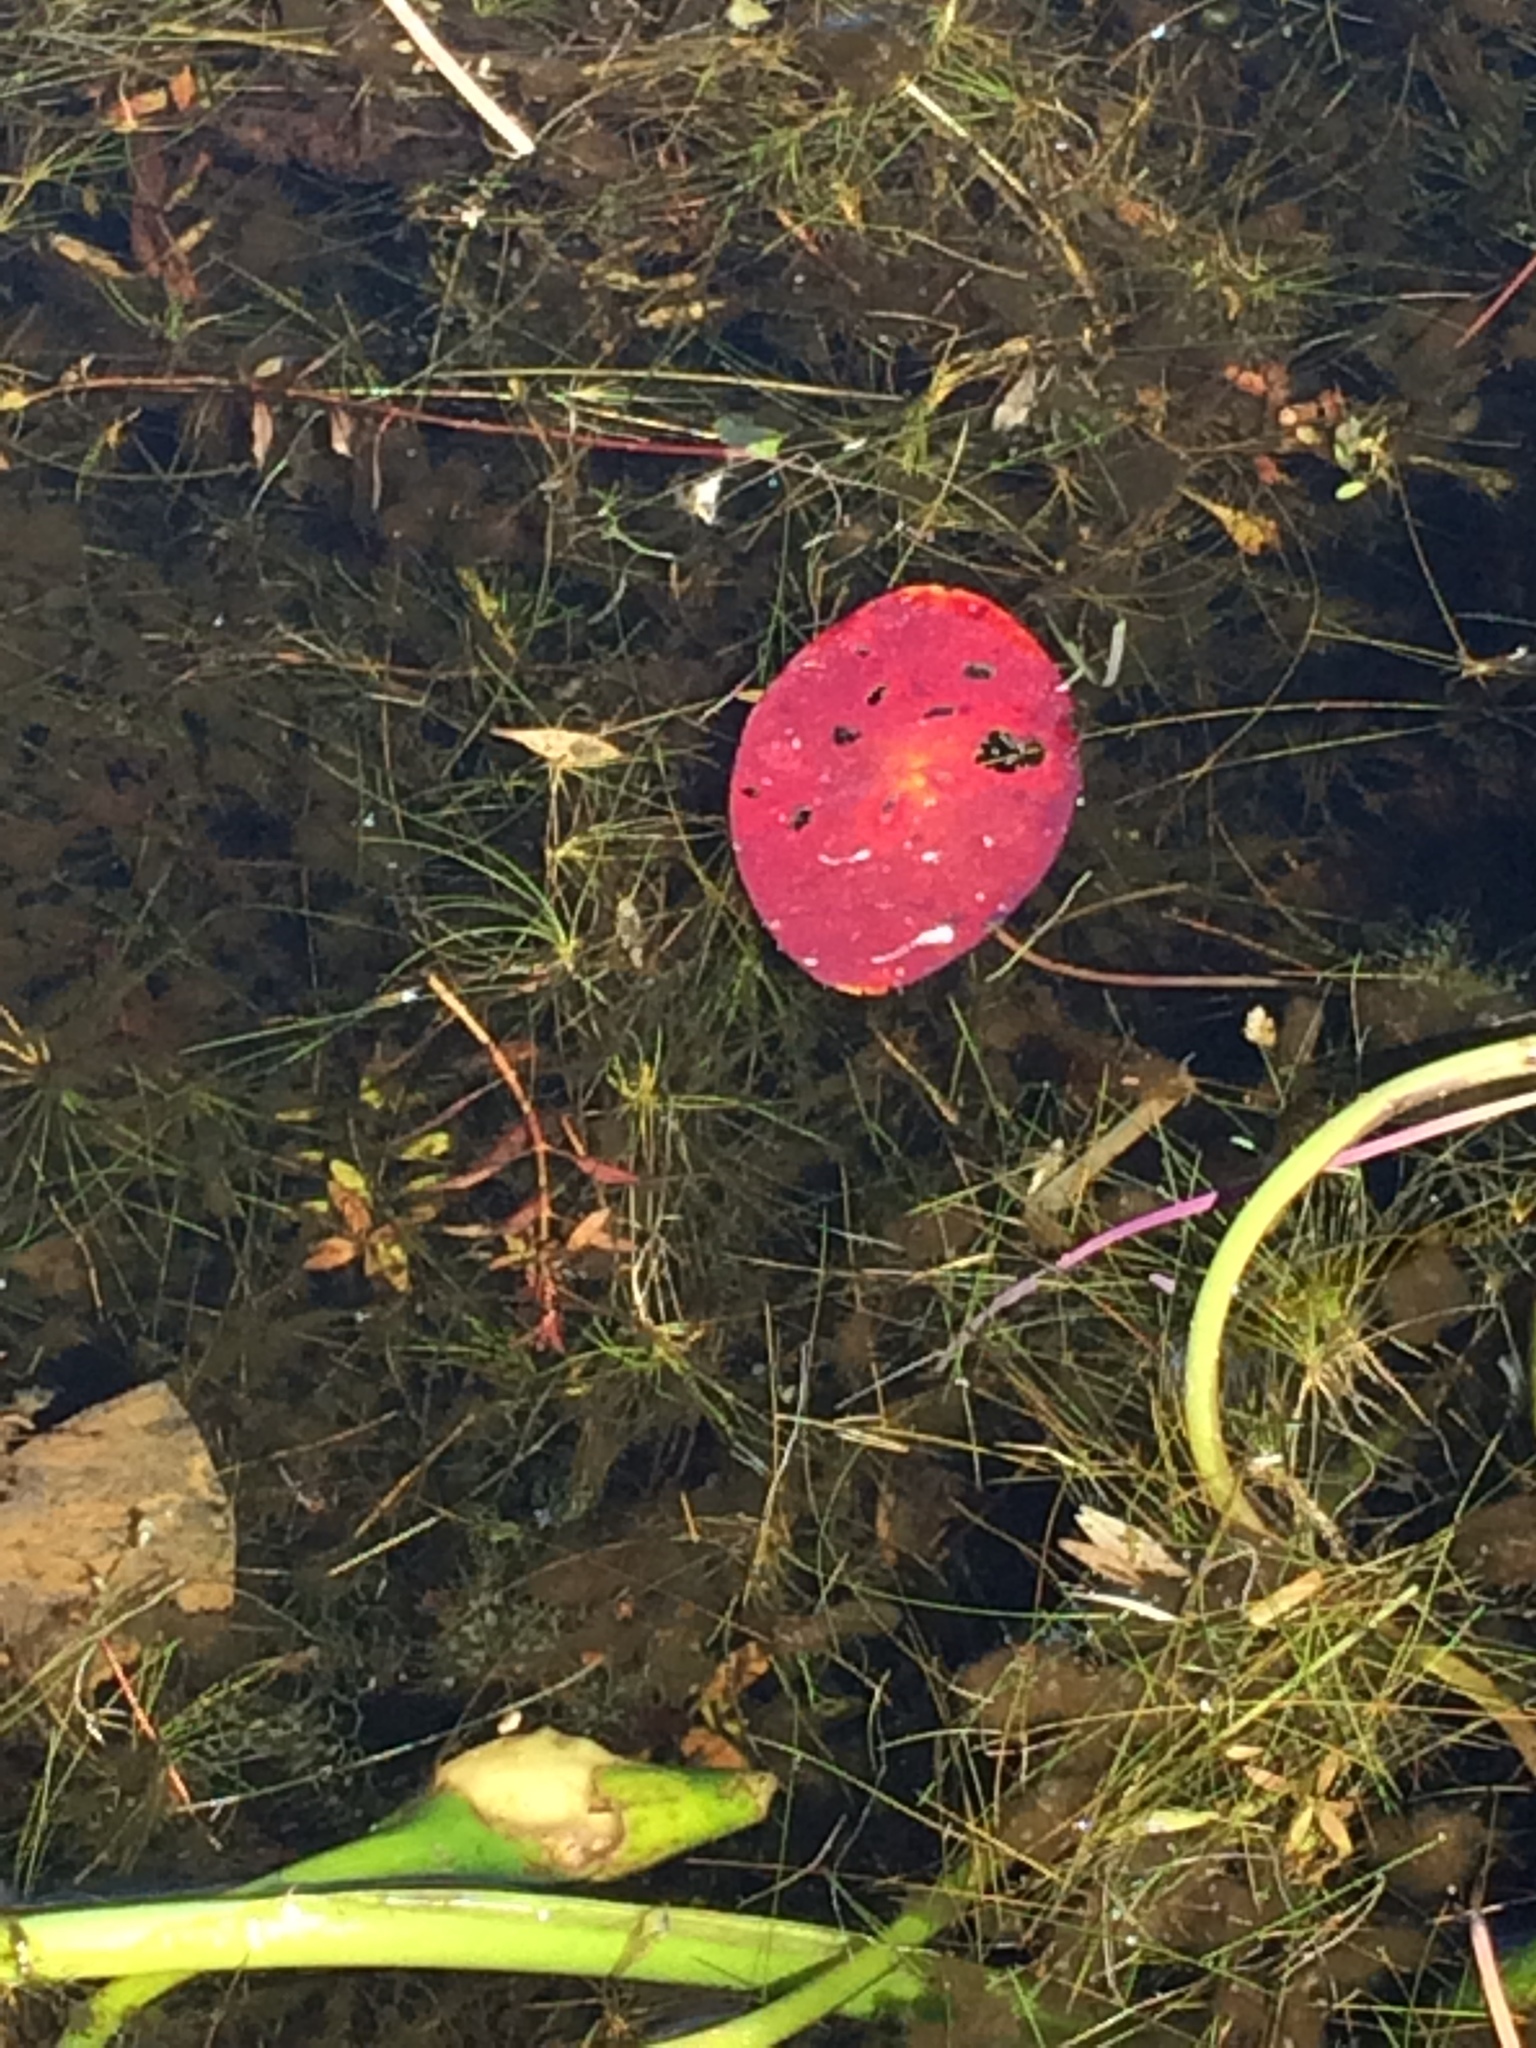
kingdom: Plantae
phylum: Tracheophyta
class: Magnoliopsida
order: Nymphaeales
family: Cabombaceae
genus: Brasenia
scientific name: Brasenia schreberi
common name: Water-shield
